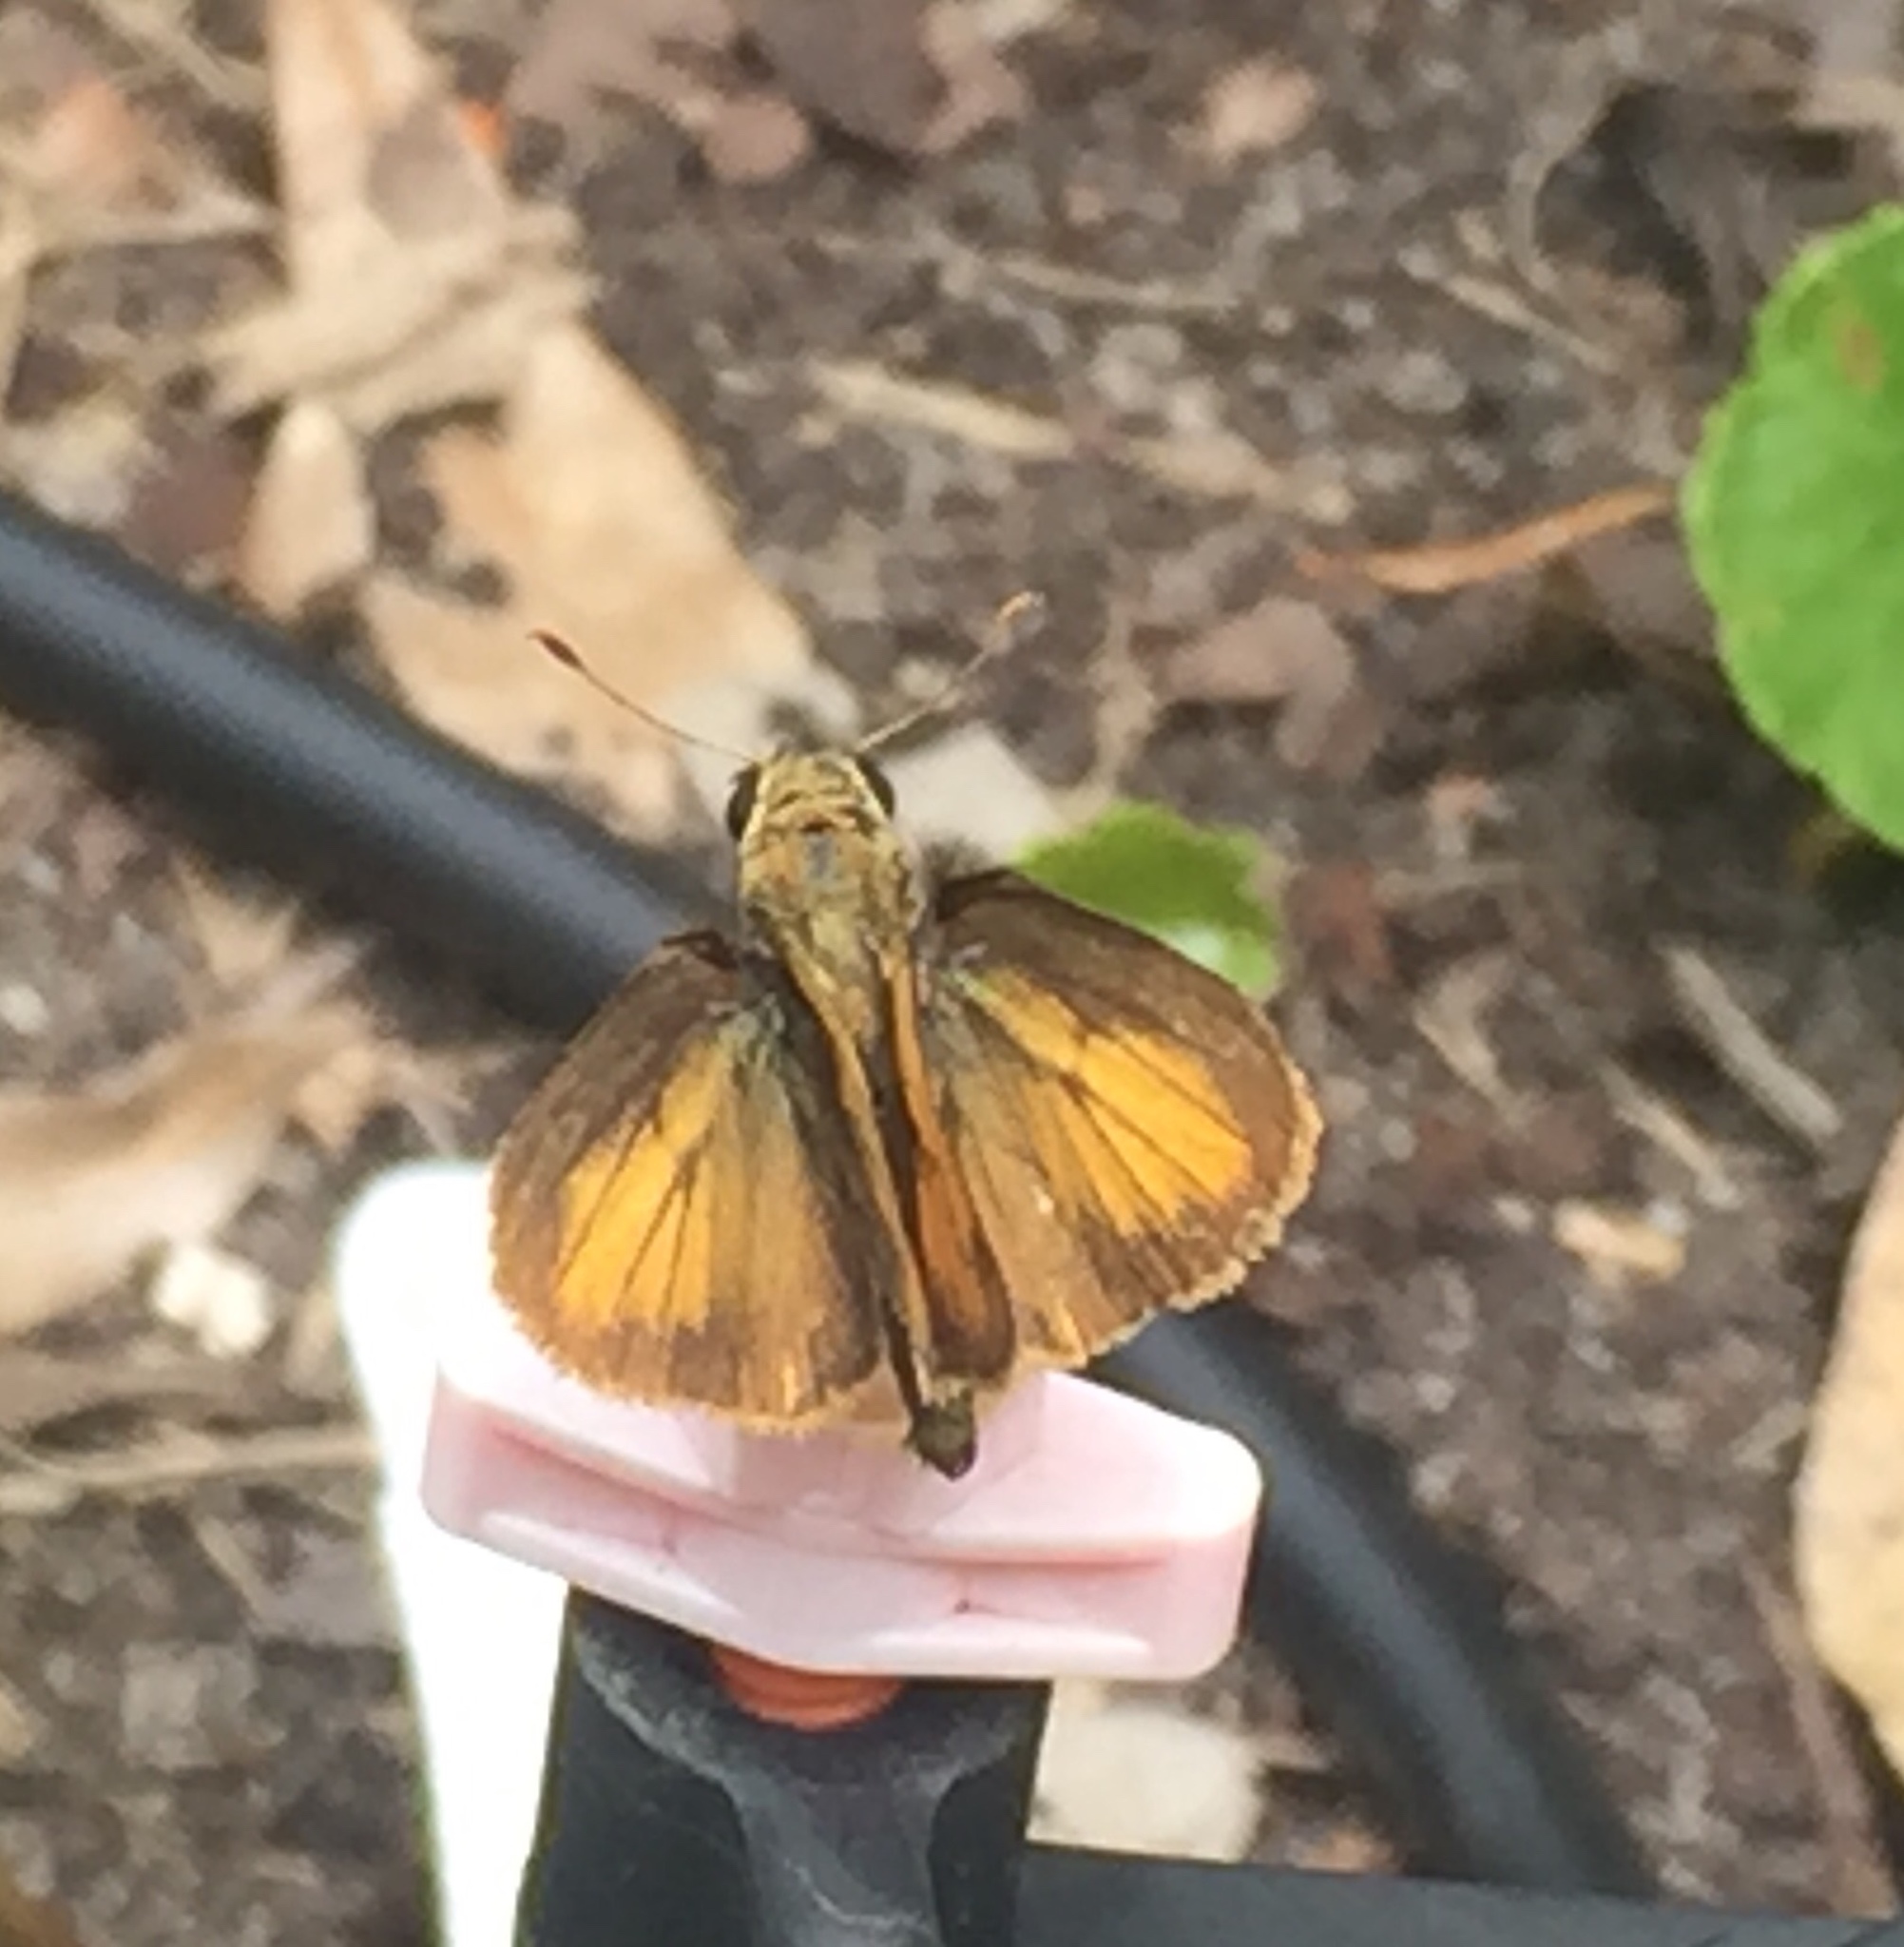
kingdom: Animalia
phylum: Arthropoda
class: Insecta
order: Lepidoptera
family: Hesperiidae
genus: Polites
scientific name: Polites vibex
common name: Whirlabout
